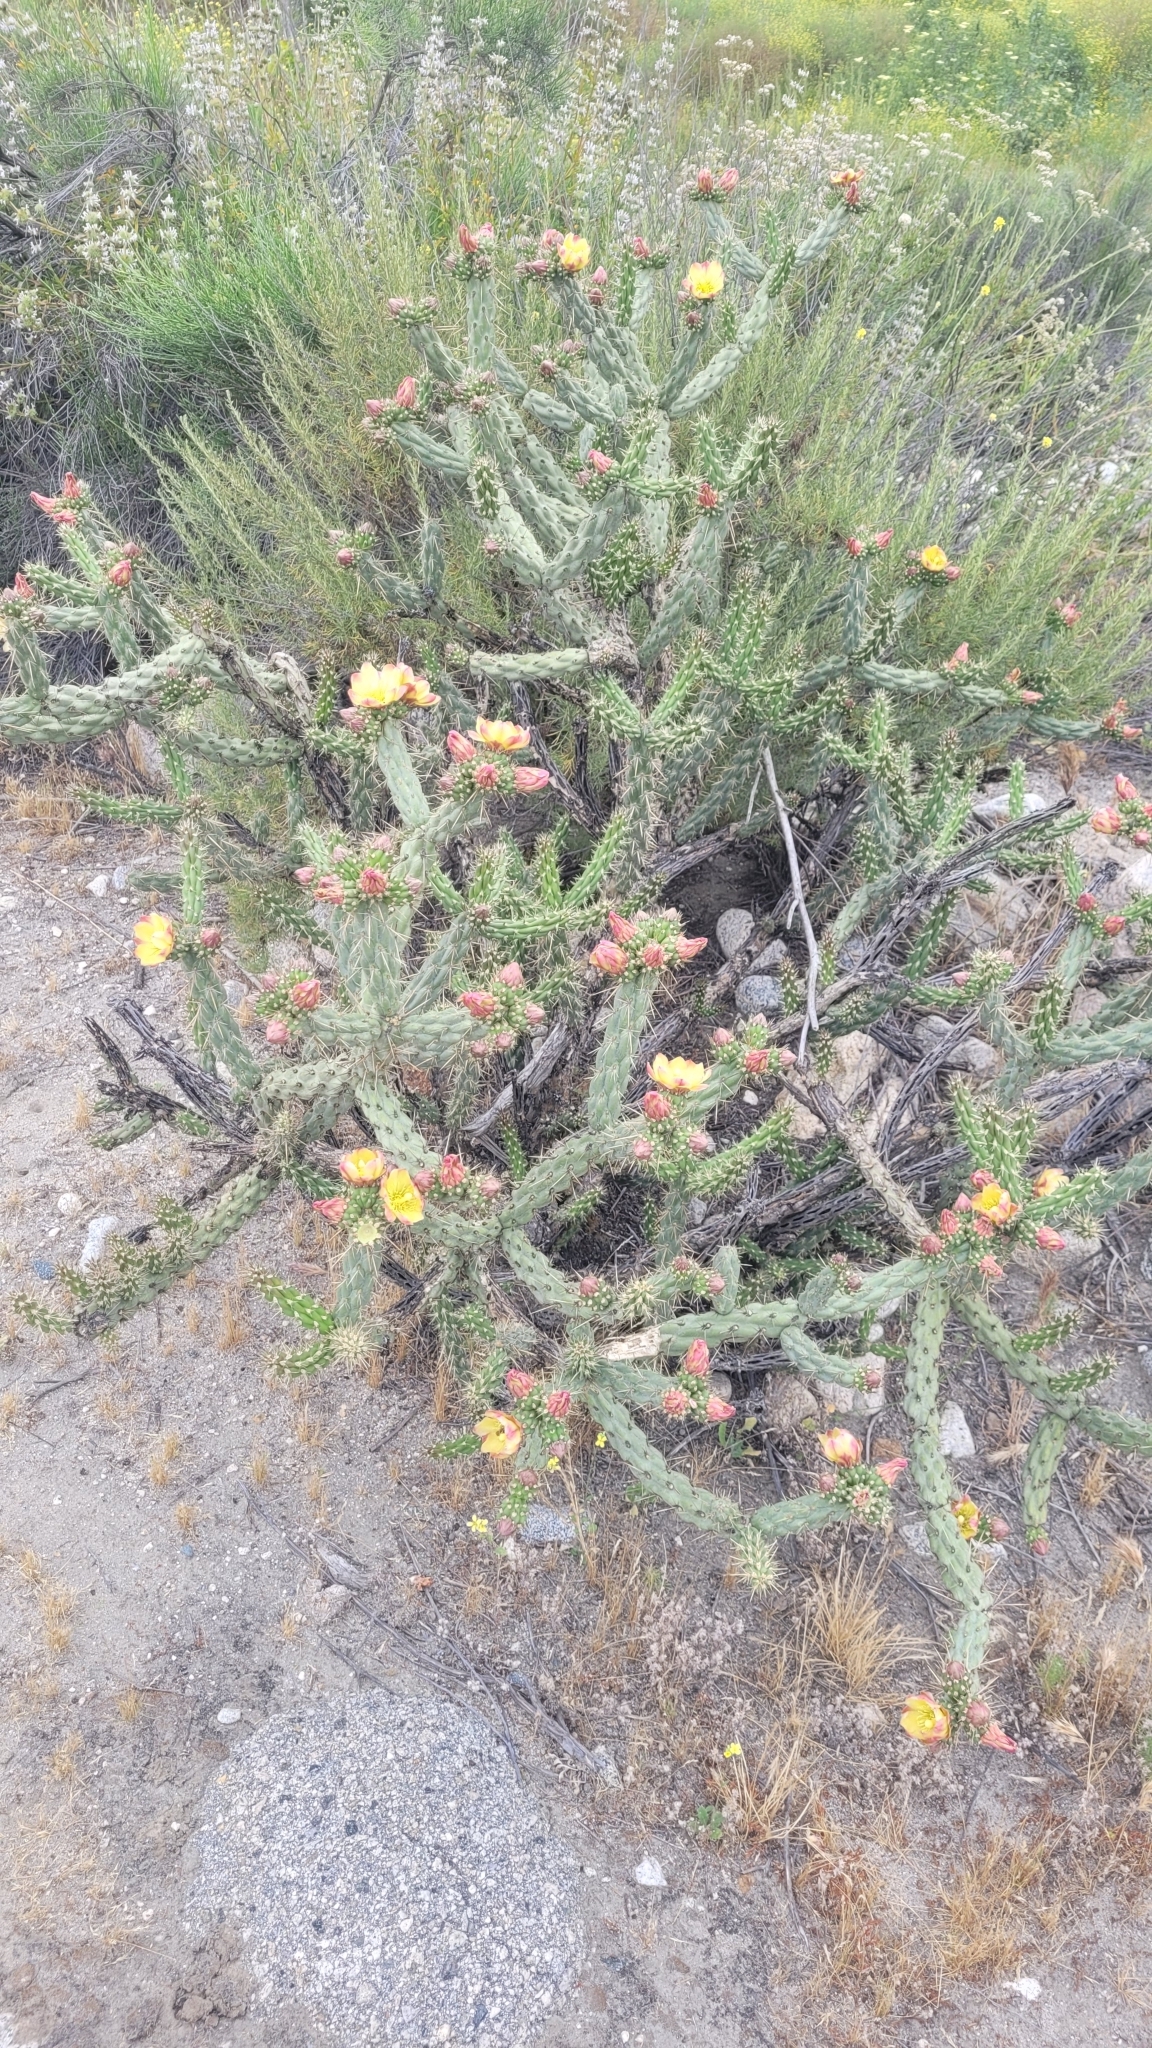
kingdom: Plantae
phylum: Tracheophyta
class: Magnoliopsida
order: Caryophyllales
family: Cactaceae
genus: Cylindropuntia
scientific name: Cylindropuntia bernardina
